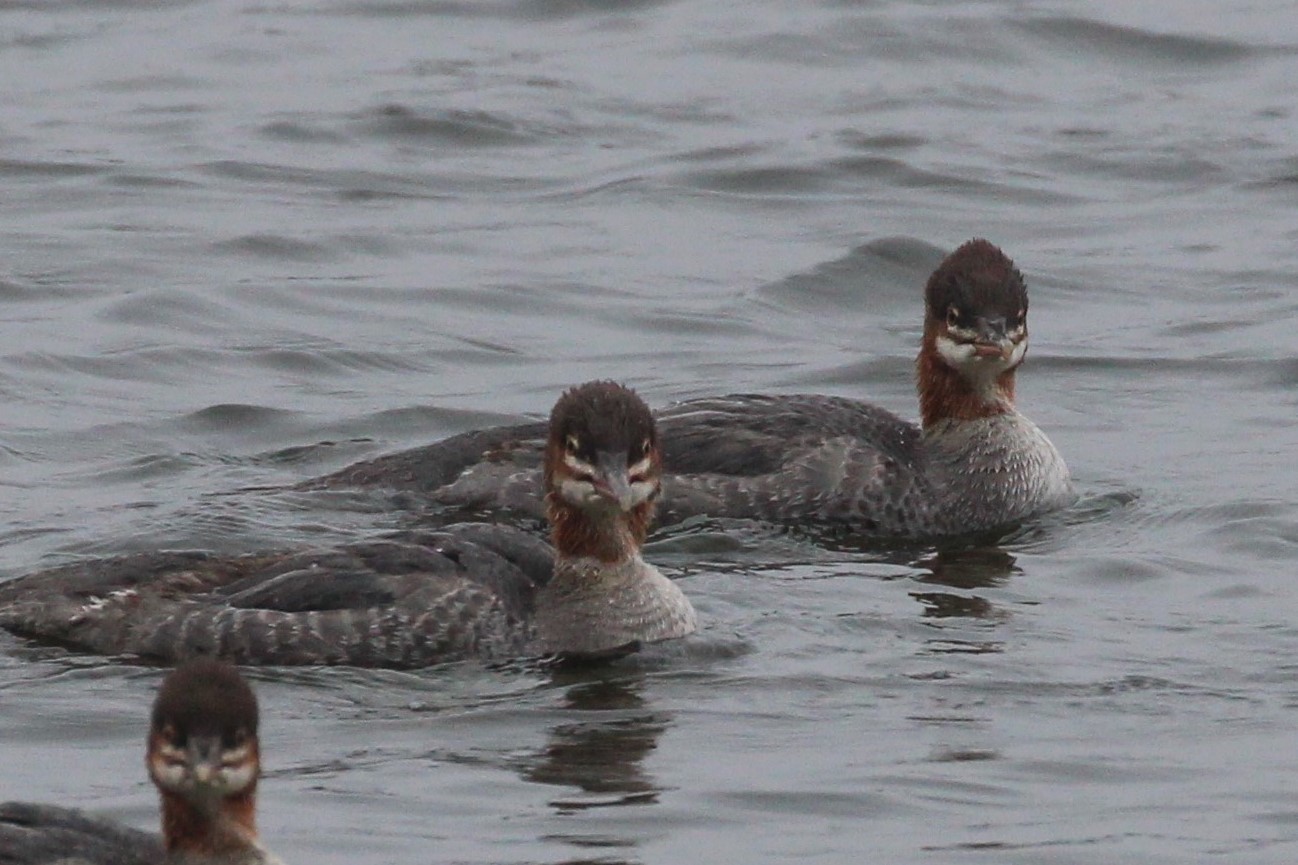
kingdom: Animalia
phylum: Chordata
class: Aves
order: Anseriformes
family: Anatidae
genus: Mergus
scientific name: Mergus merganser
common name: Common merganser
